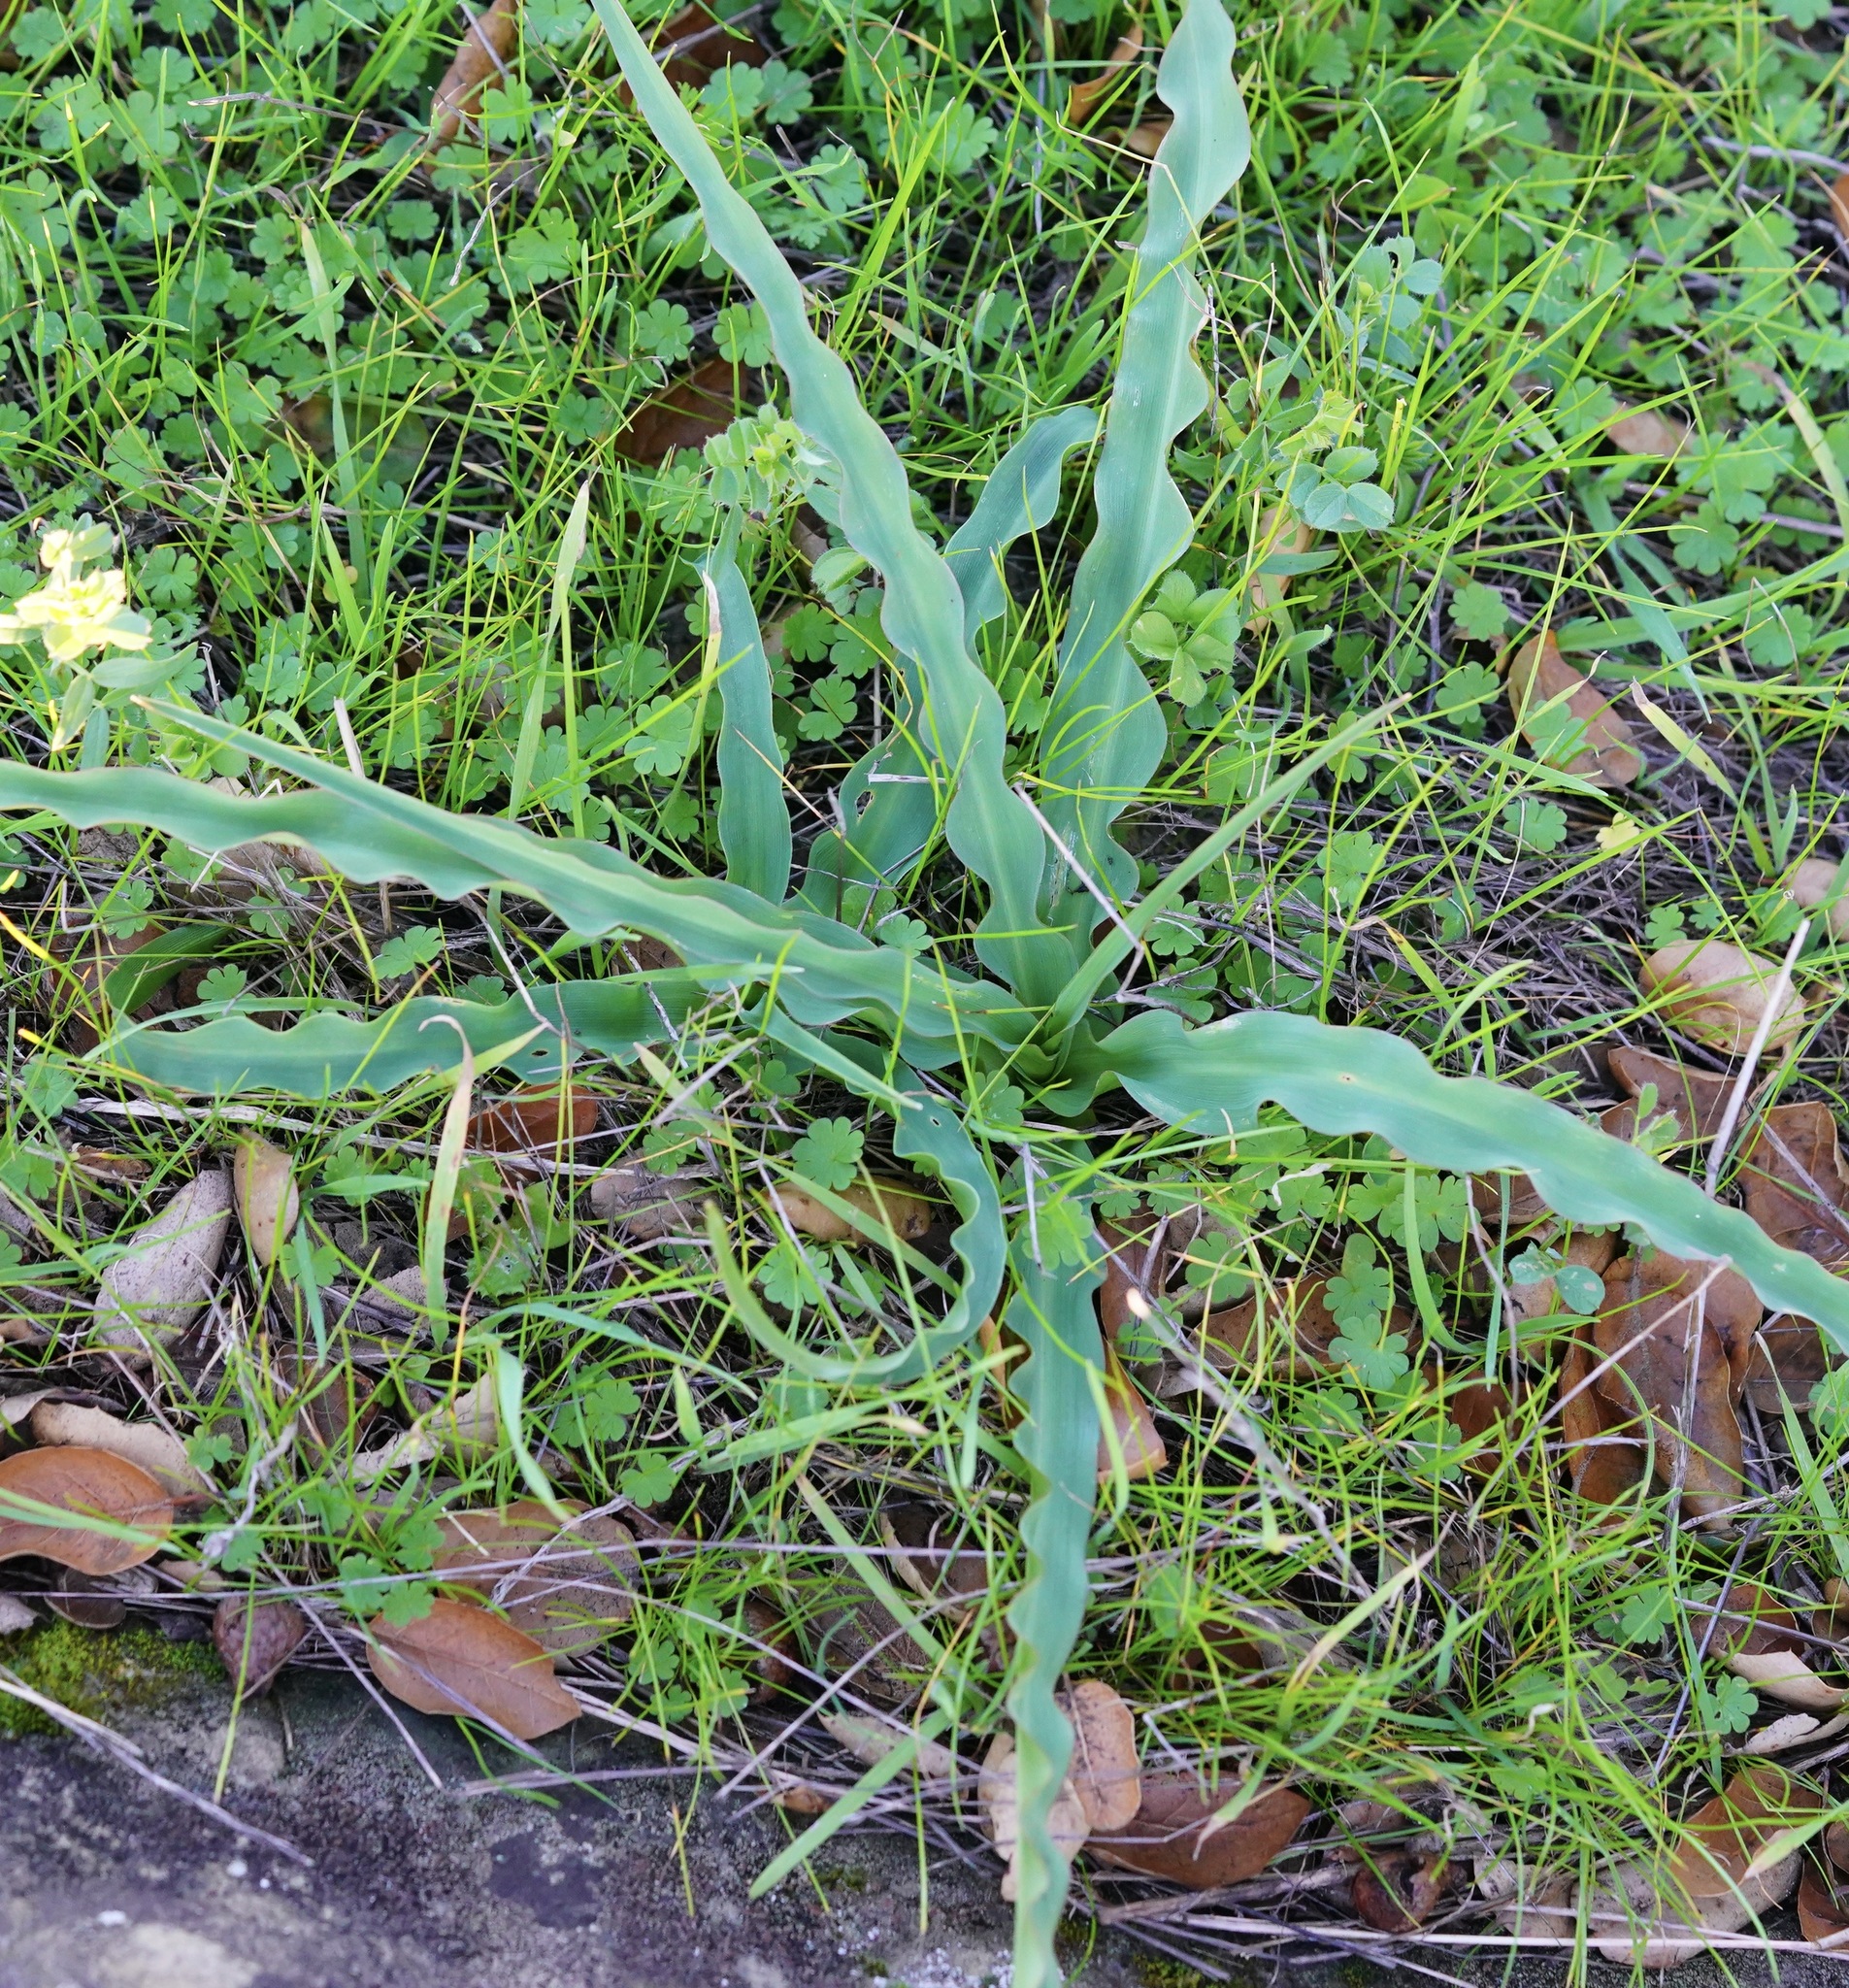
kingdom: Plantae
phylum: Tracheophyta
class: Liliopsida
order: Asparagales
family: Asparagaceae
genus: Chlorogalum
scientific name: Chlorogalum pomeridianum
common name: Amole
